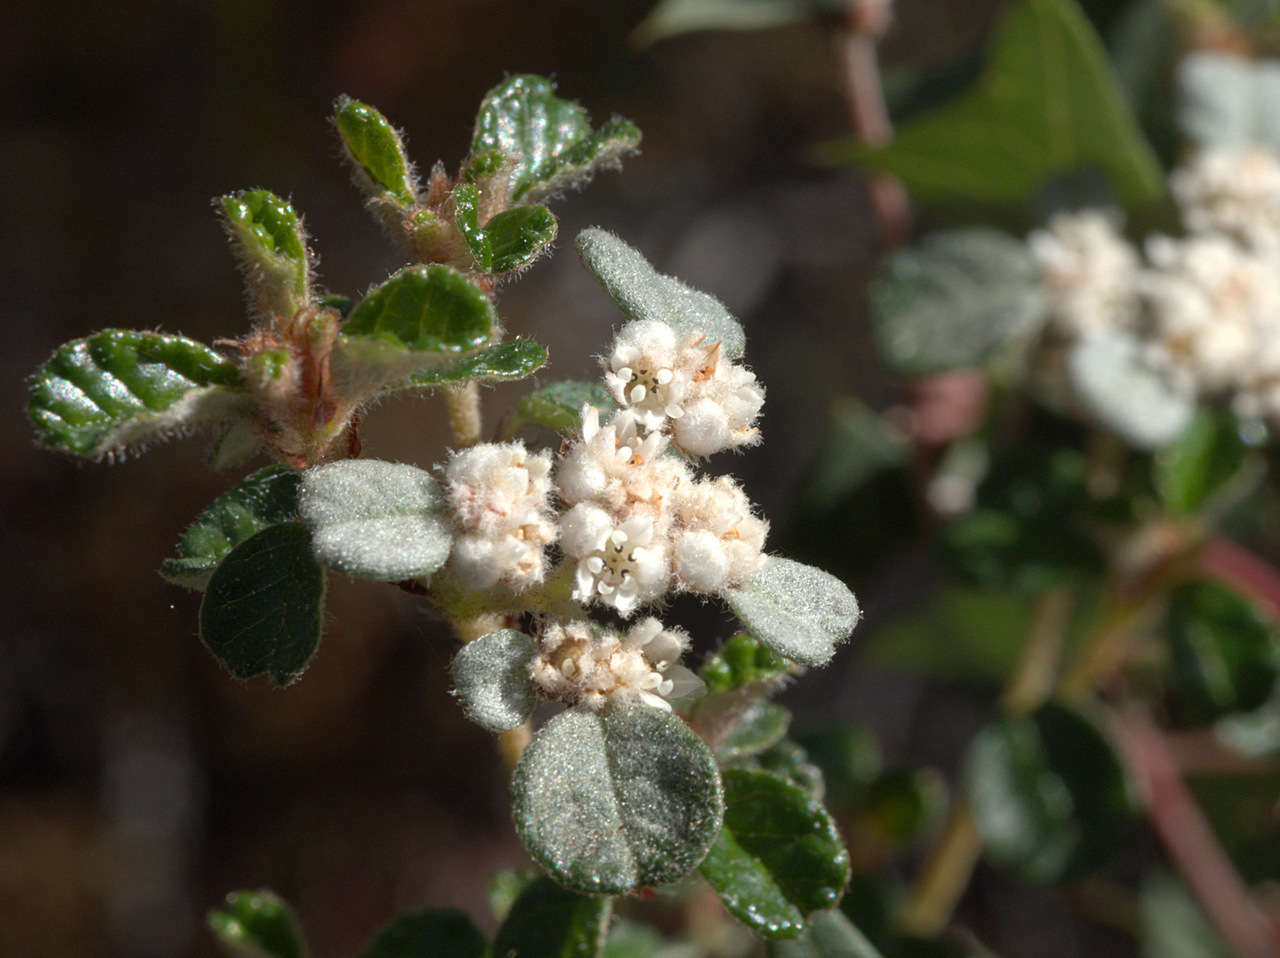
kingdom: Plantae
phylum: Tracheophyta
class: Magnoliopsida
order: Rosales
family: Rhamnaceae
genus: Spyridium
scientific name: Spyridium parvifolium
